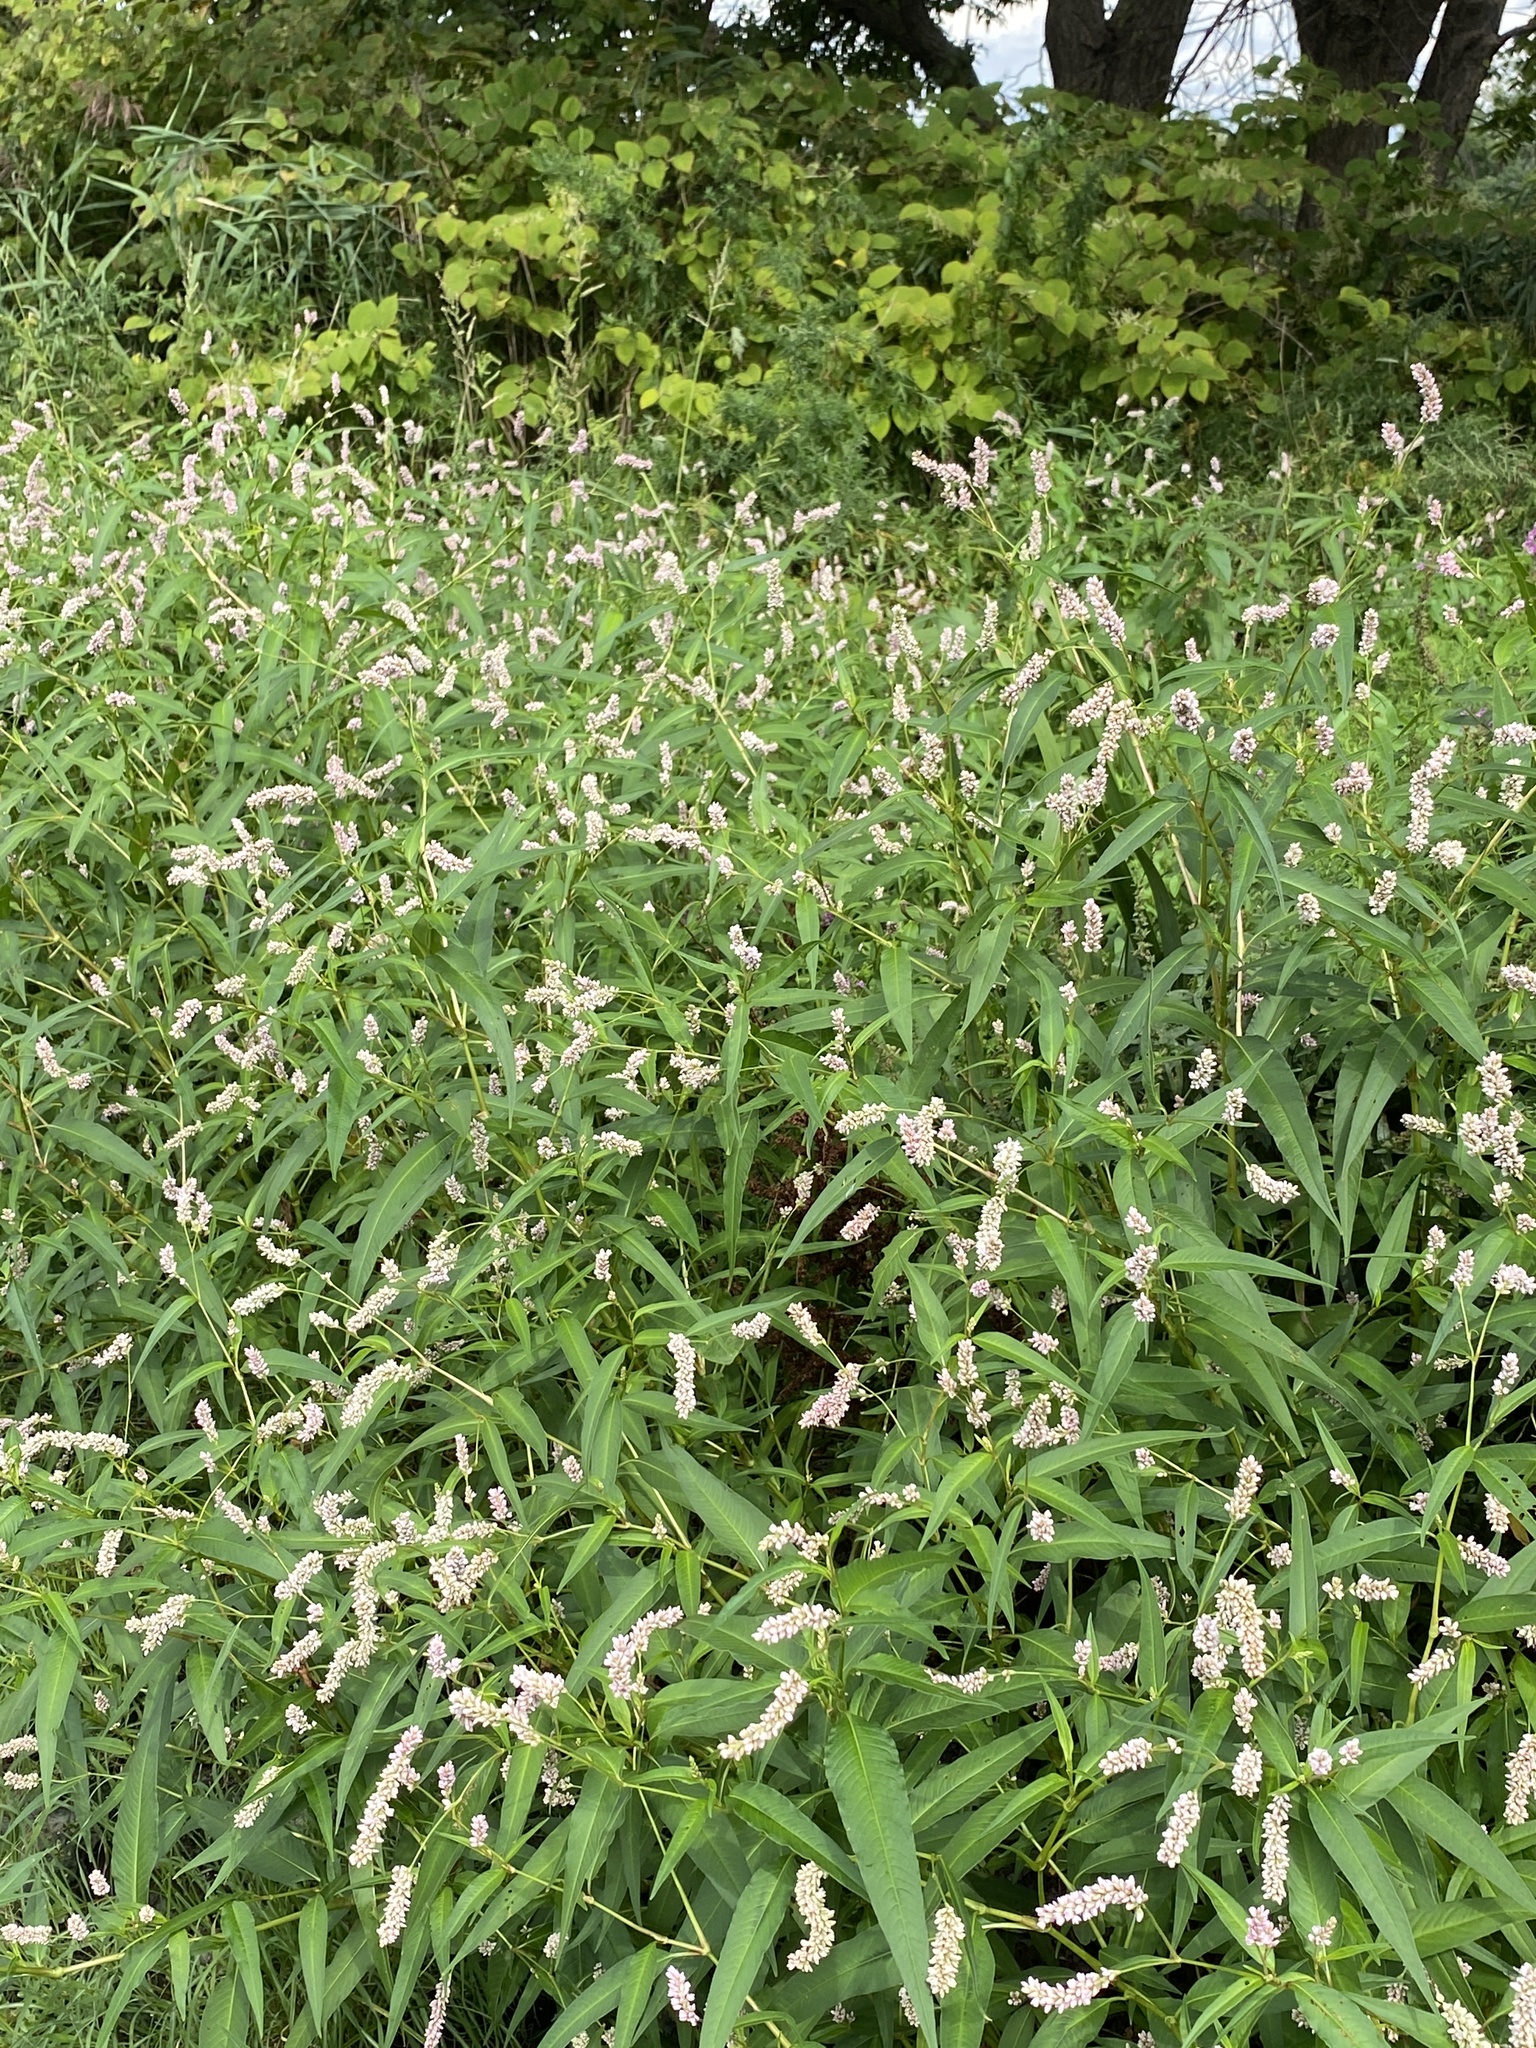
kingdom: Plantae
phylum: Tracheophyta
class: Magnoliopsida
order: Caryophyllales
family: Polygonaceae
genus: Persicaria
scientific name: Persicaria pensylvanica
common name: Pinkweed
